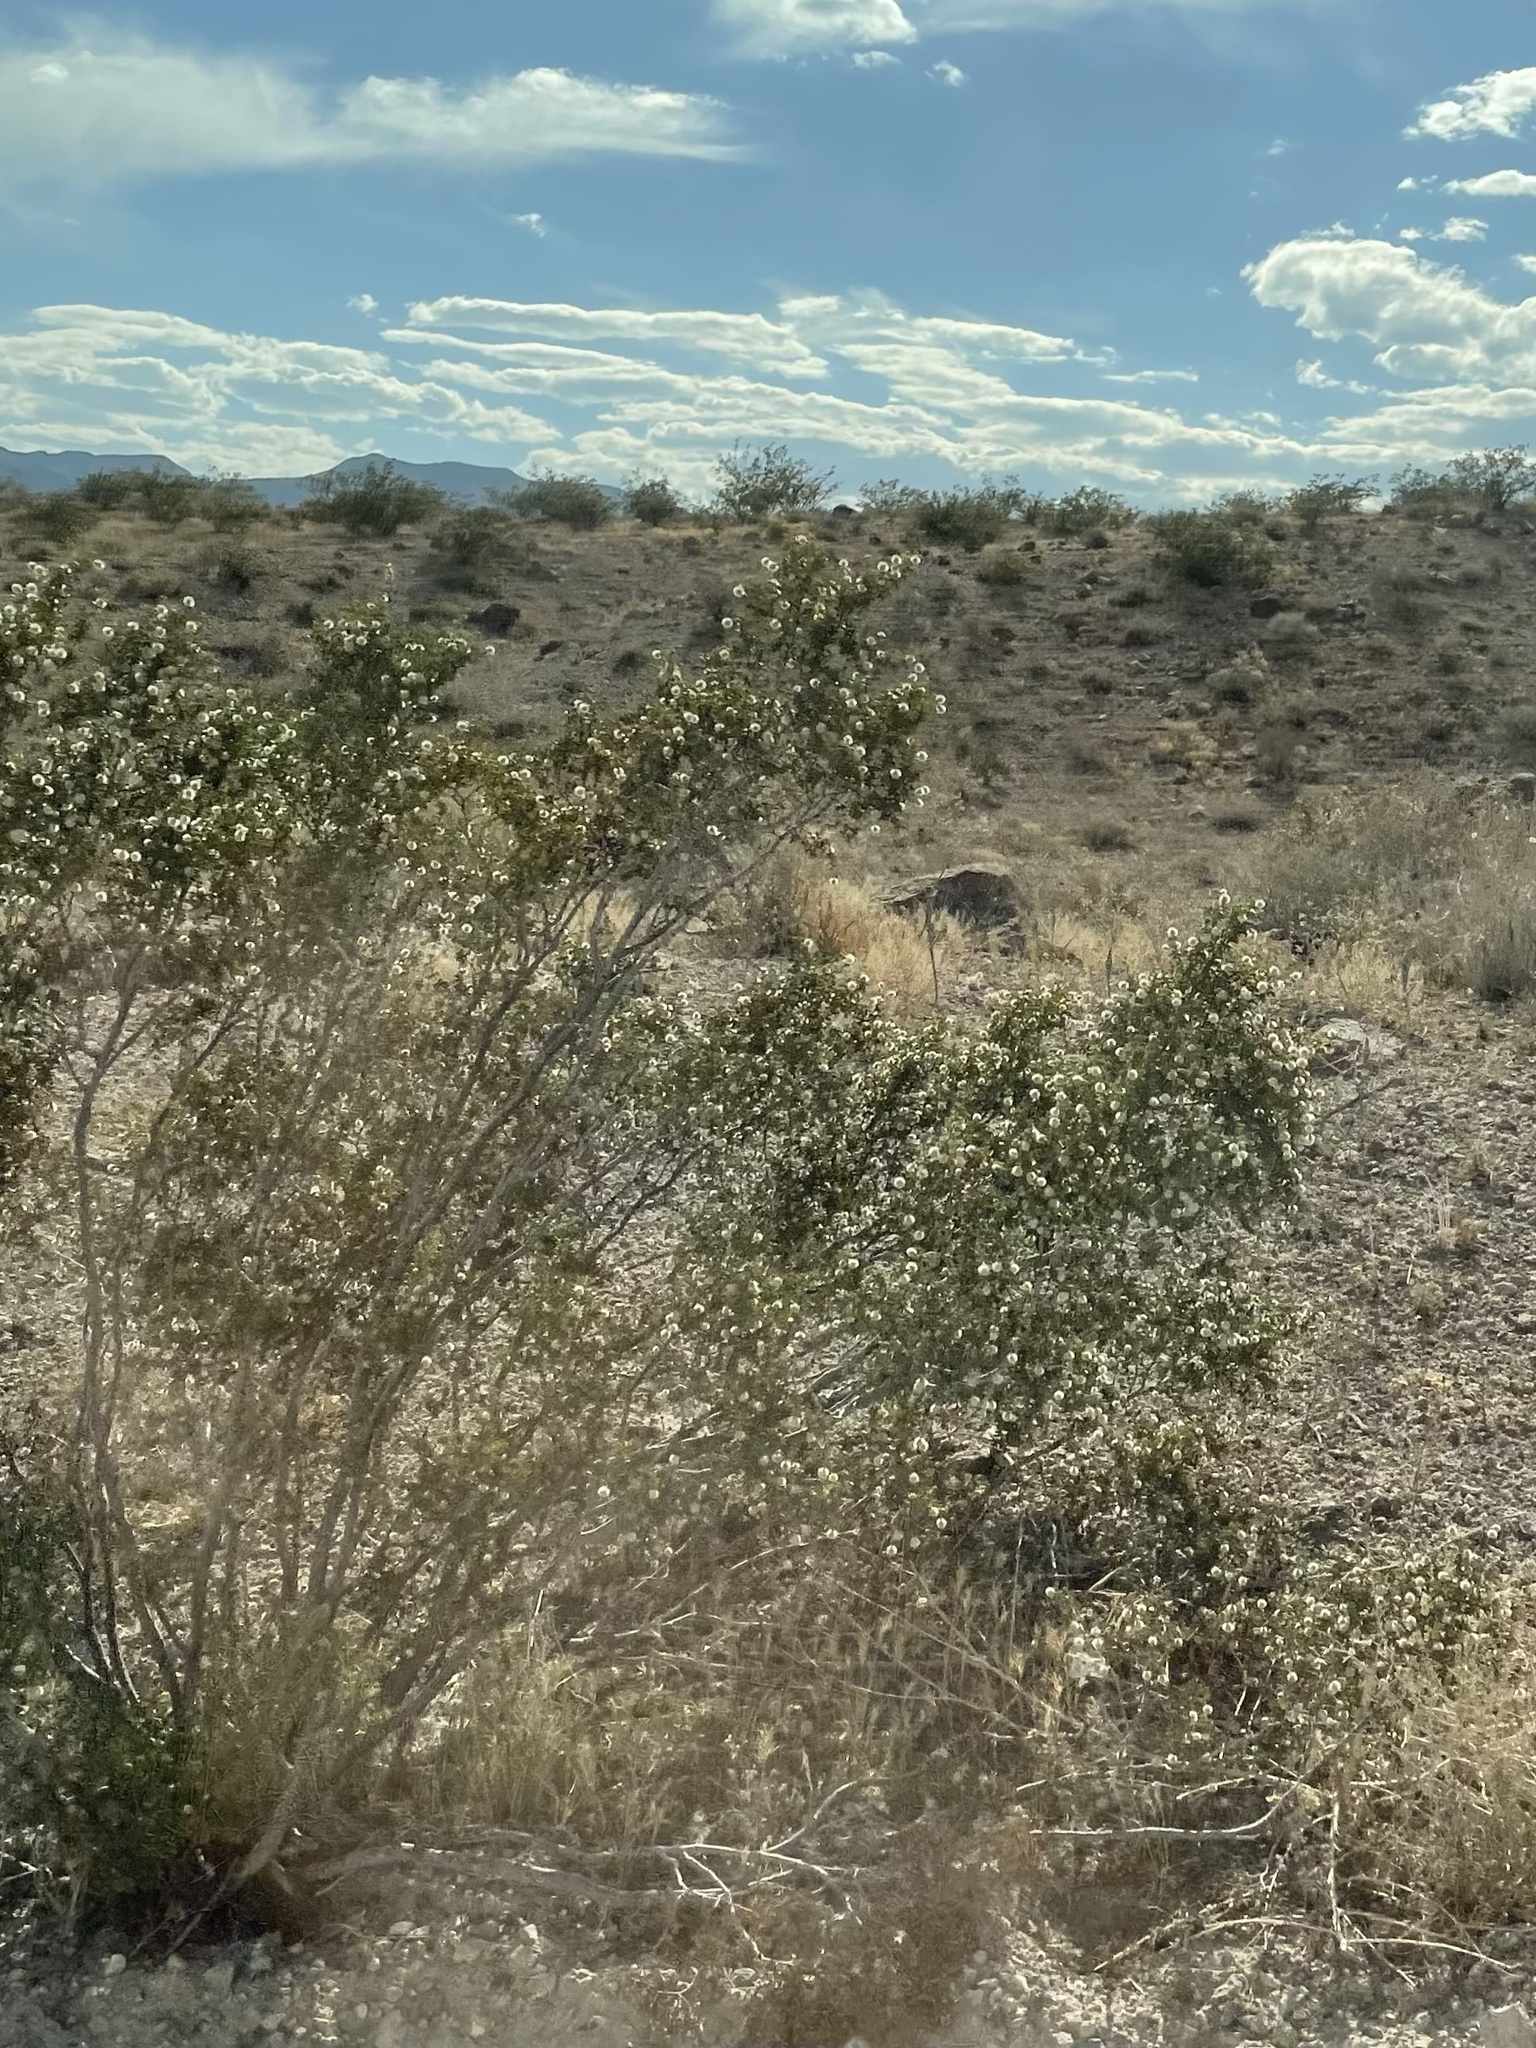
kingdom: Plantae
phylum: Tracheophyta
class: Magnoliopsida
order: Zygophyllales
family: Zygophyllaceae
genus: Larrea
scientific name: Larrea tridentata
